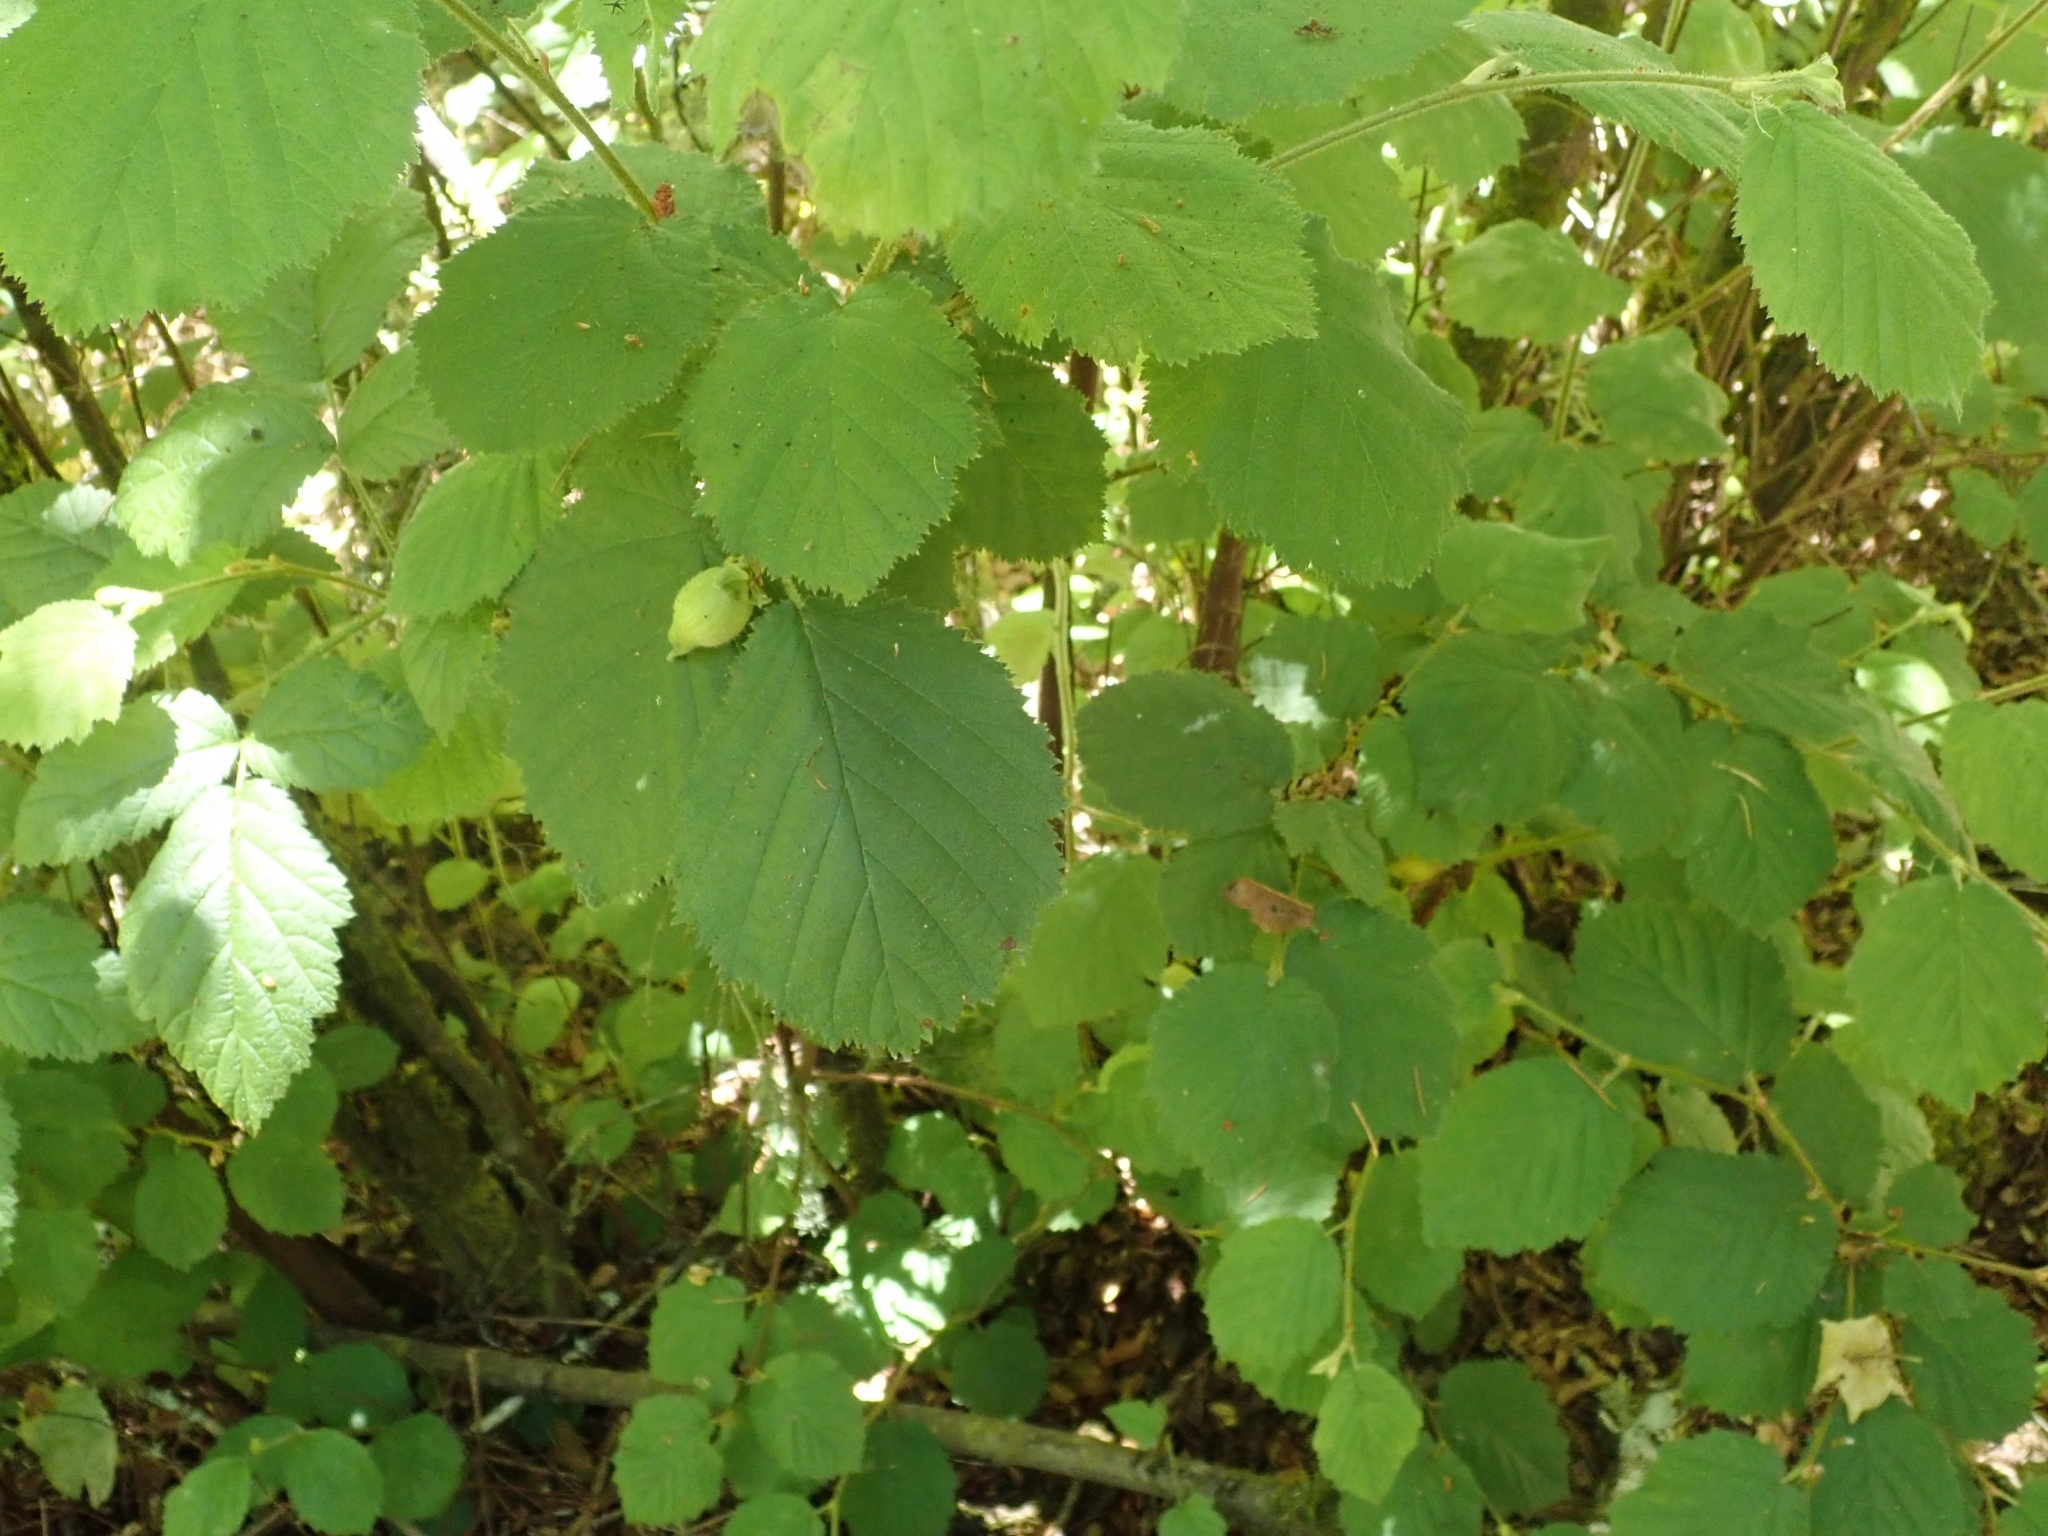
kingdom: Plantae
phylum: Tracheophyta
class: Magnoliopsida
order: Fagales
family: Betulaceae
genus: Corylus
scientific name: Corylus cornuta
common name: Beaked hazel
